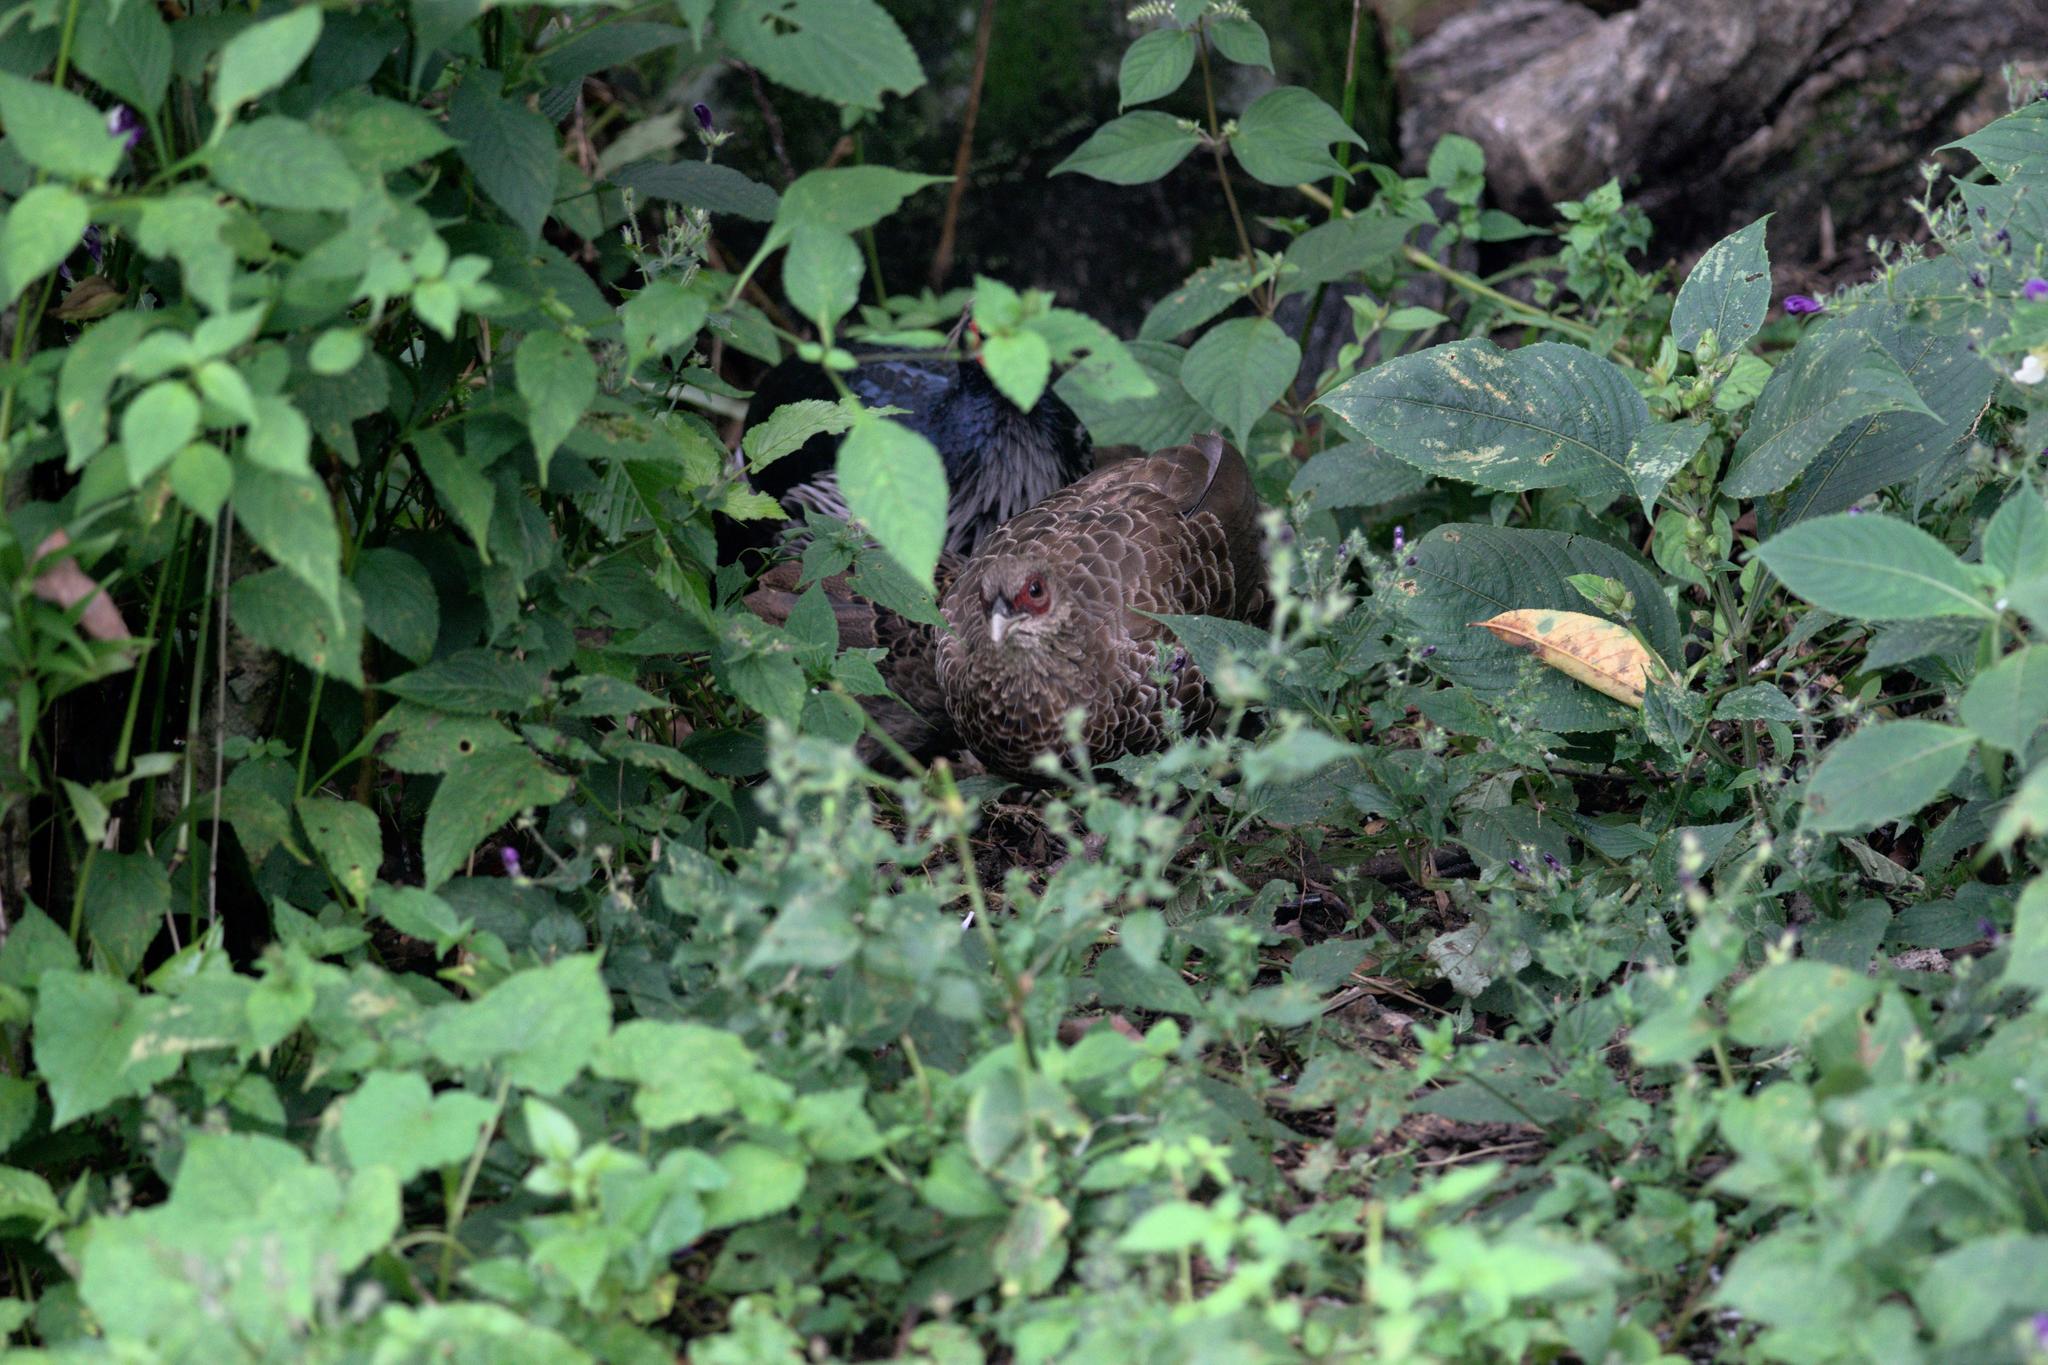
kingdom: Animalia
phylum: Chordata
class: Aves
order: Galliformes
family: Phasianidae
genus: Lophura
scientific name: Lophura leucomelanos
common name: Kalij pheasant
